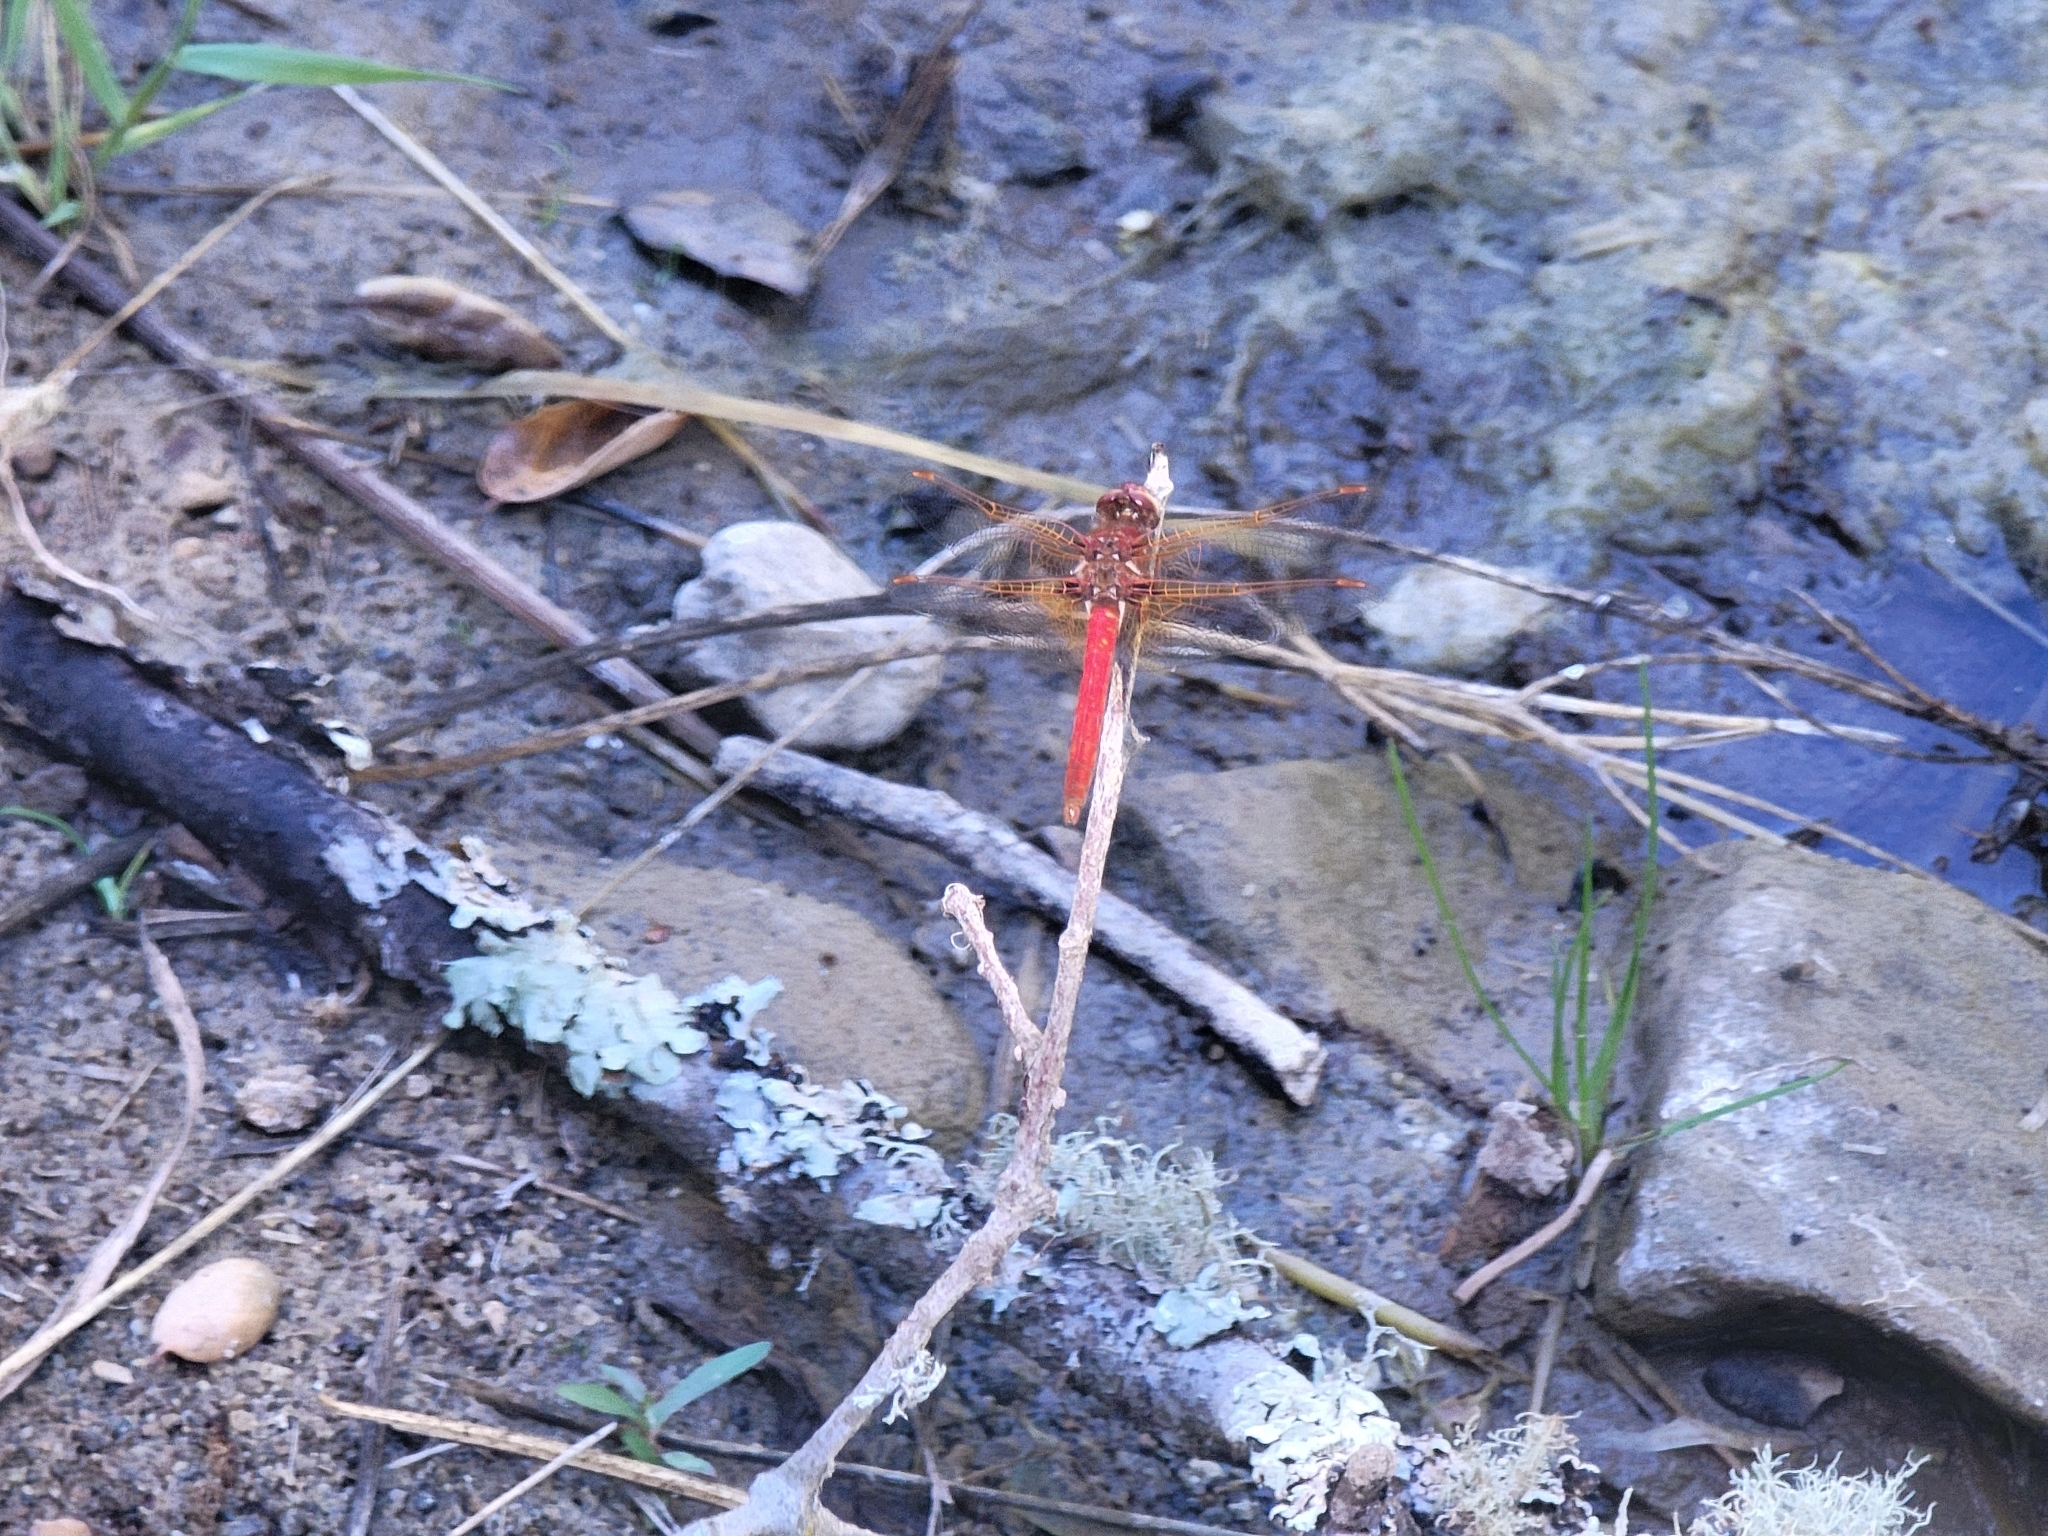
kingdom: Animalia
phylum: Arthropoda
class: Insecta
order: Odonata
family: Libellulidae
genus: Sympetrum
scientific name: Sympetrum illotum
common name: Cardinal meadowhawk
